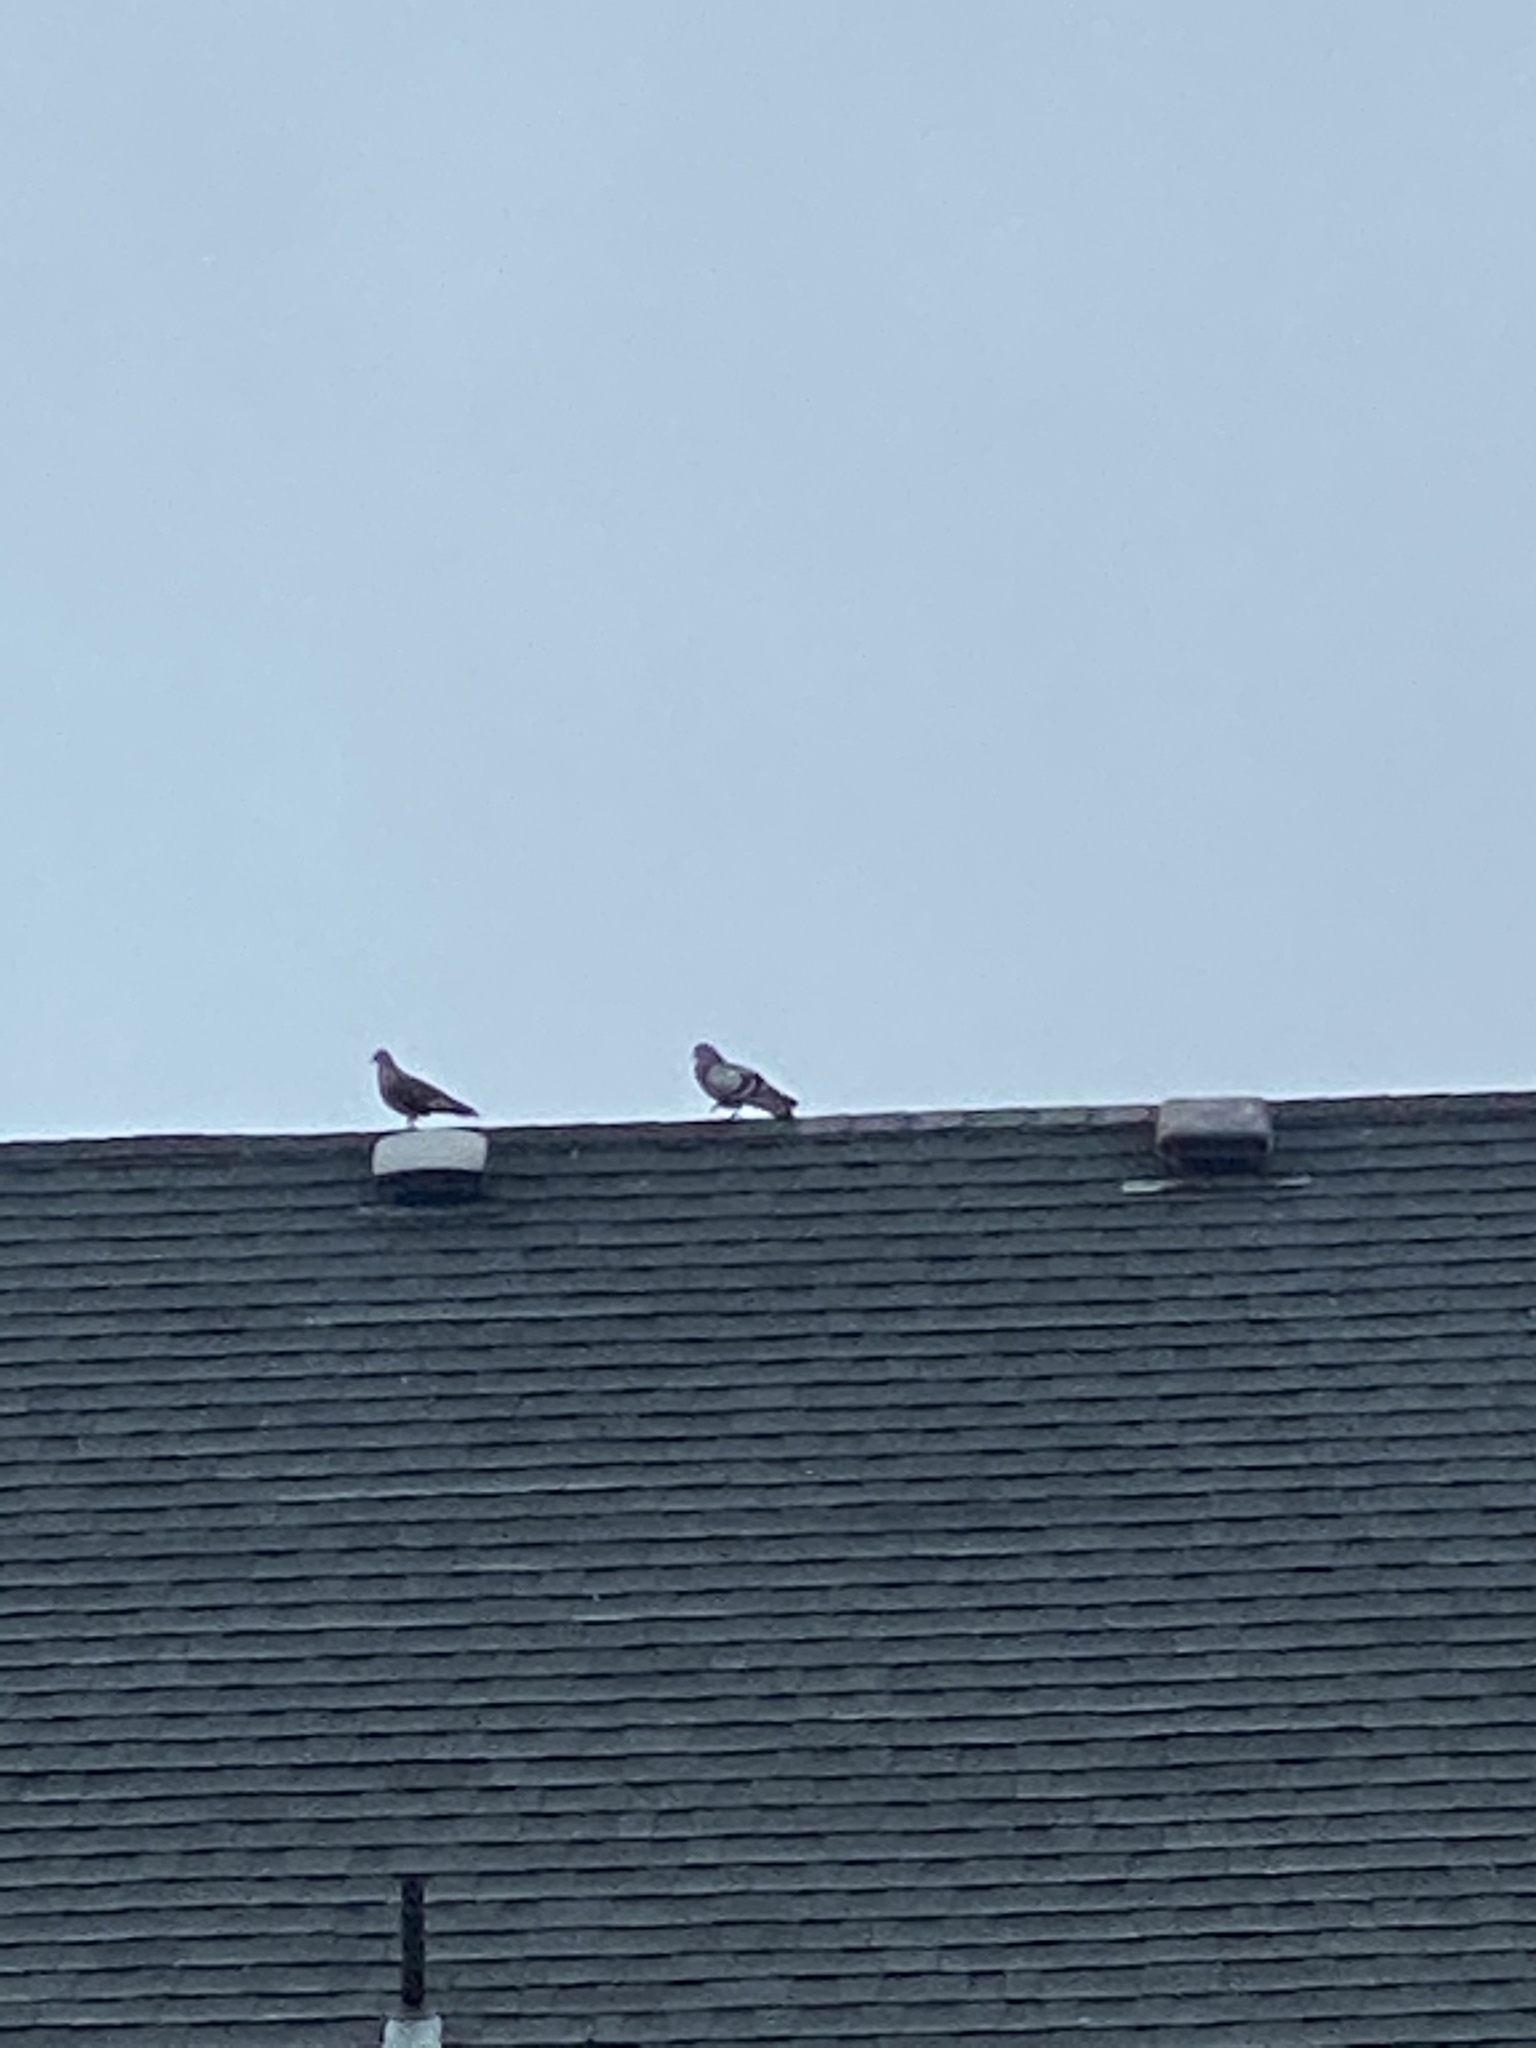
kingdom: Animalia
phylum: Chordata
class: Aves
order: Columbiformes
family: Columbidae
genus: Columba
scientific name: Columba livia
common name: Rock pigeon
